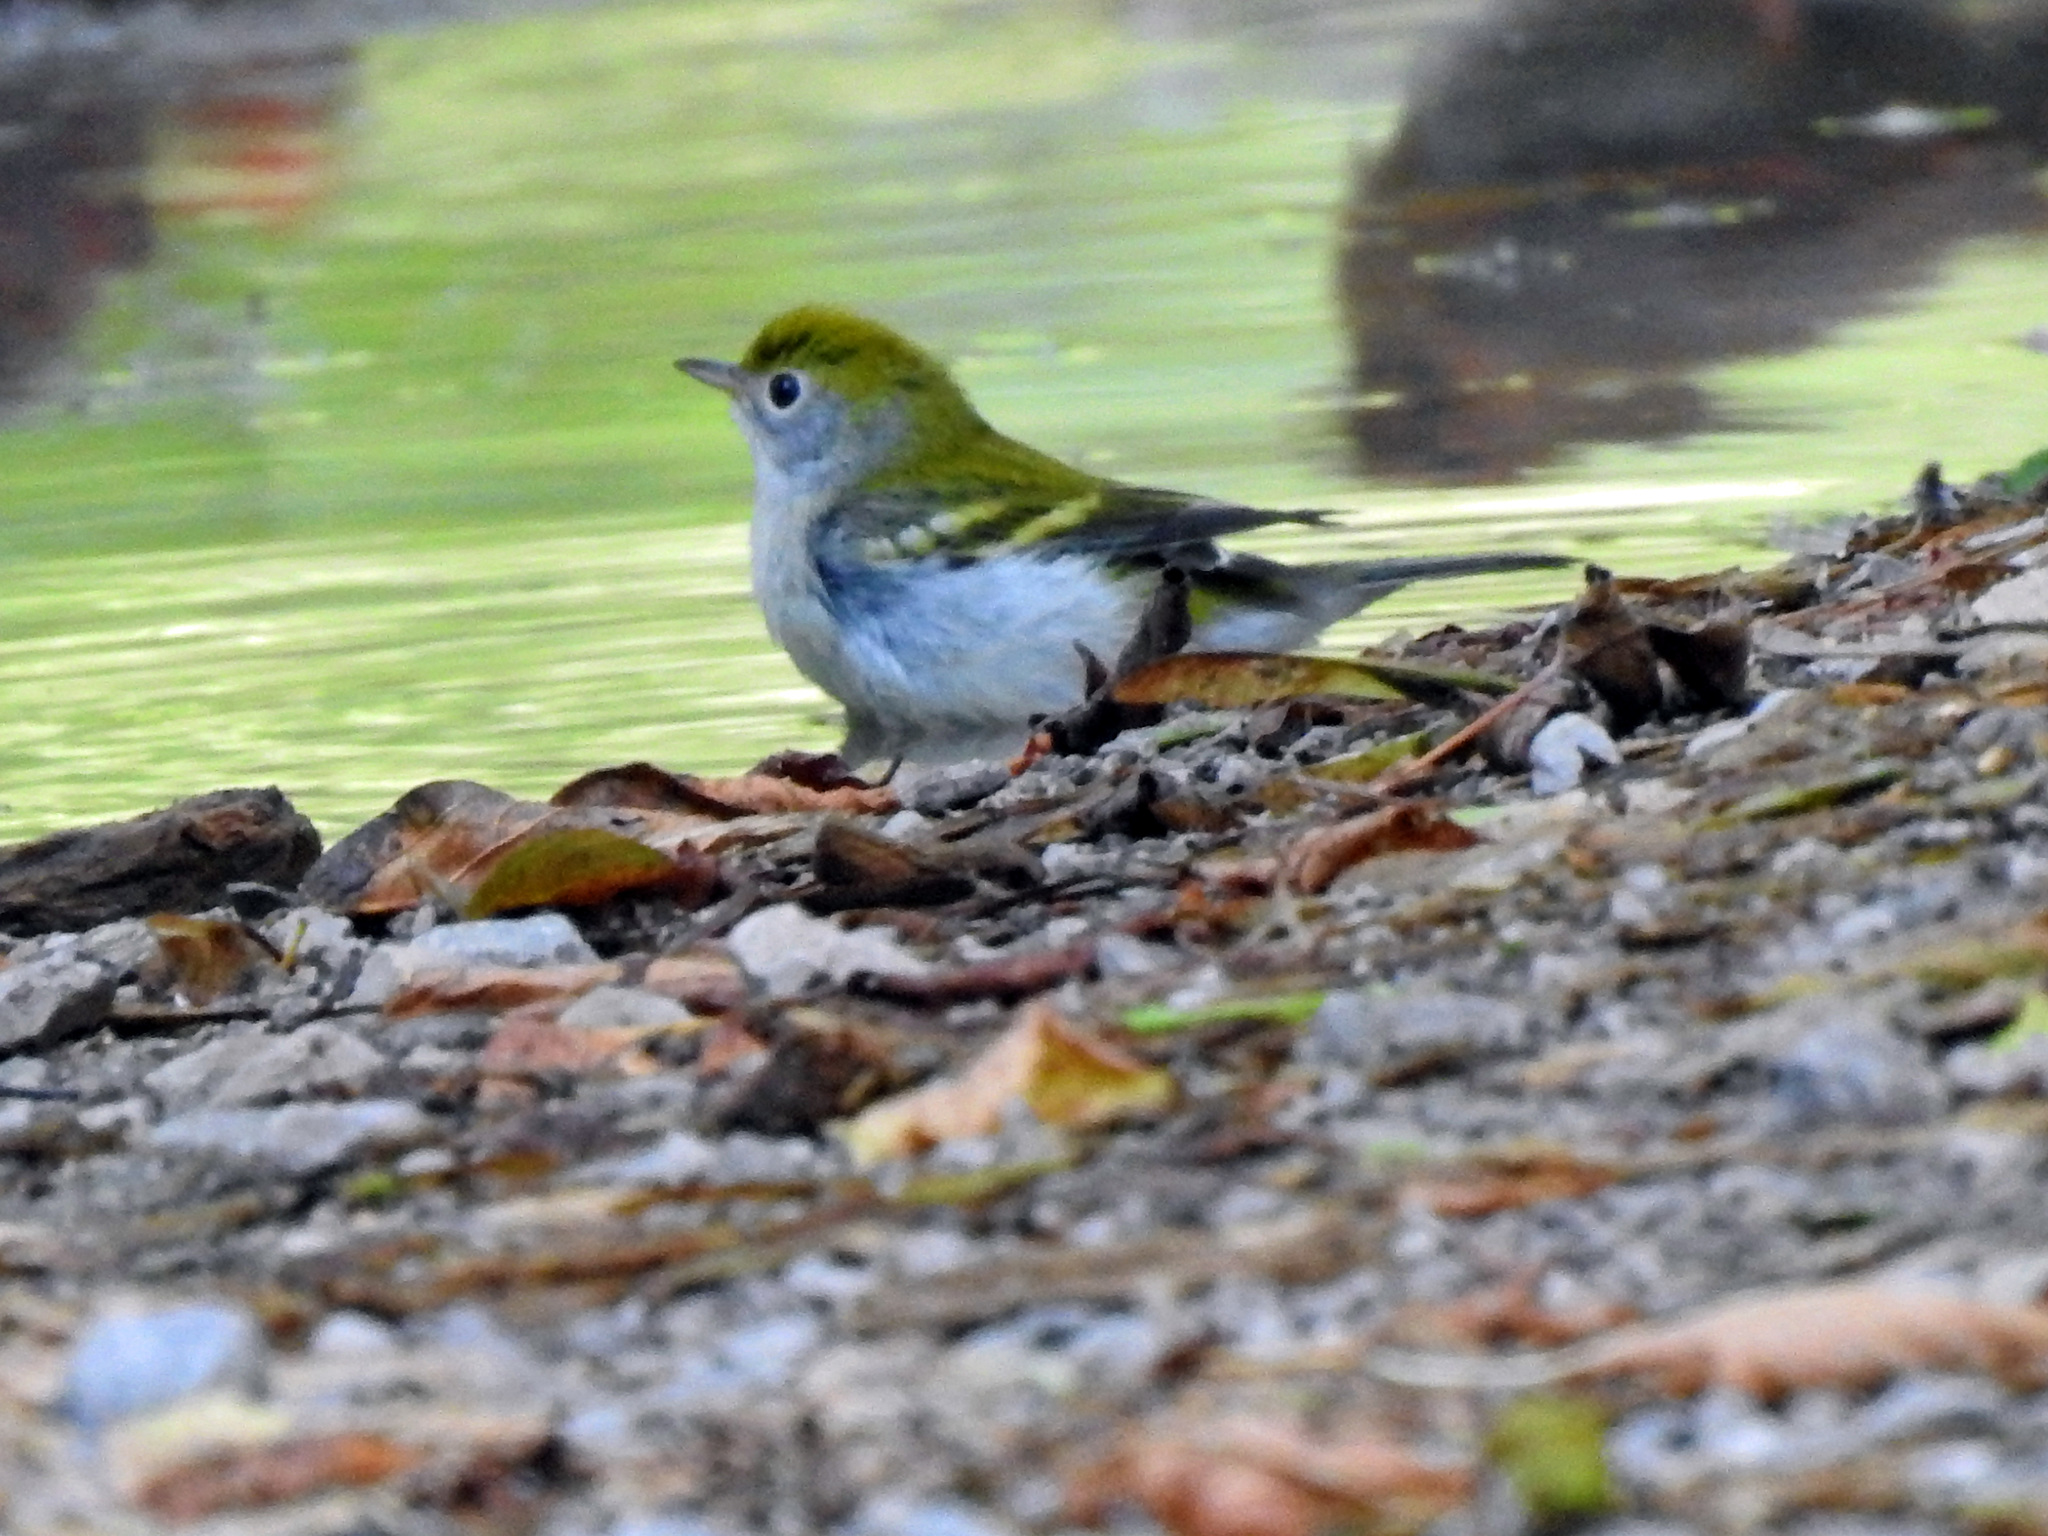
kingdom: Animalia
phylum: Chordata
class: Aves
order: Passeriformes
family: Parulidae
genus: Setophaga
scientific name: Setophaga pensylvanica
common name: Chestnut-sided warbler
